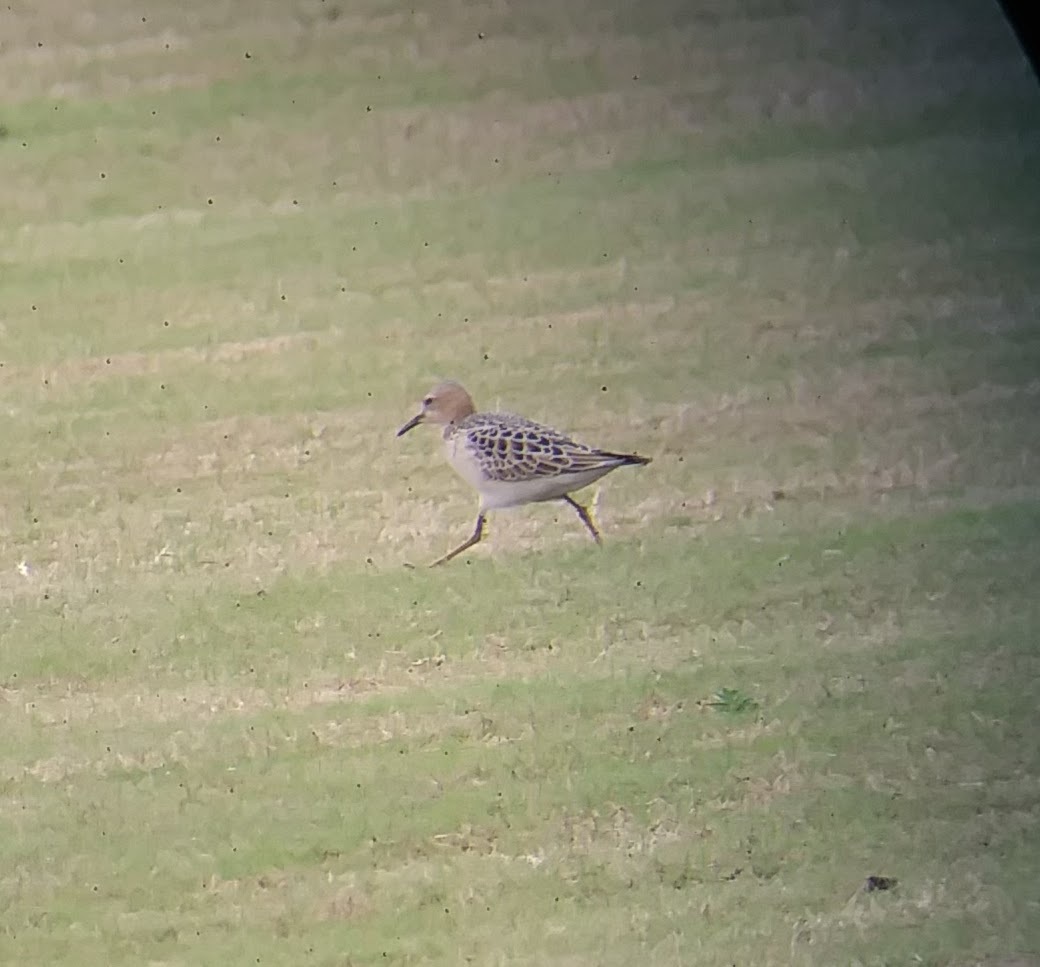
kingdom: Animalia
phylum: Chordata
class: Aves
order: Charadriiformes
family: Scolopacidae
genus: Calidris
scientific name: Calidris subruficollis
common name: Buff-breasted sandpiper
